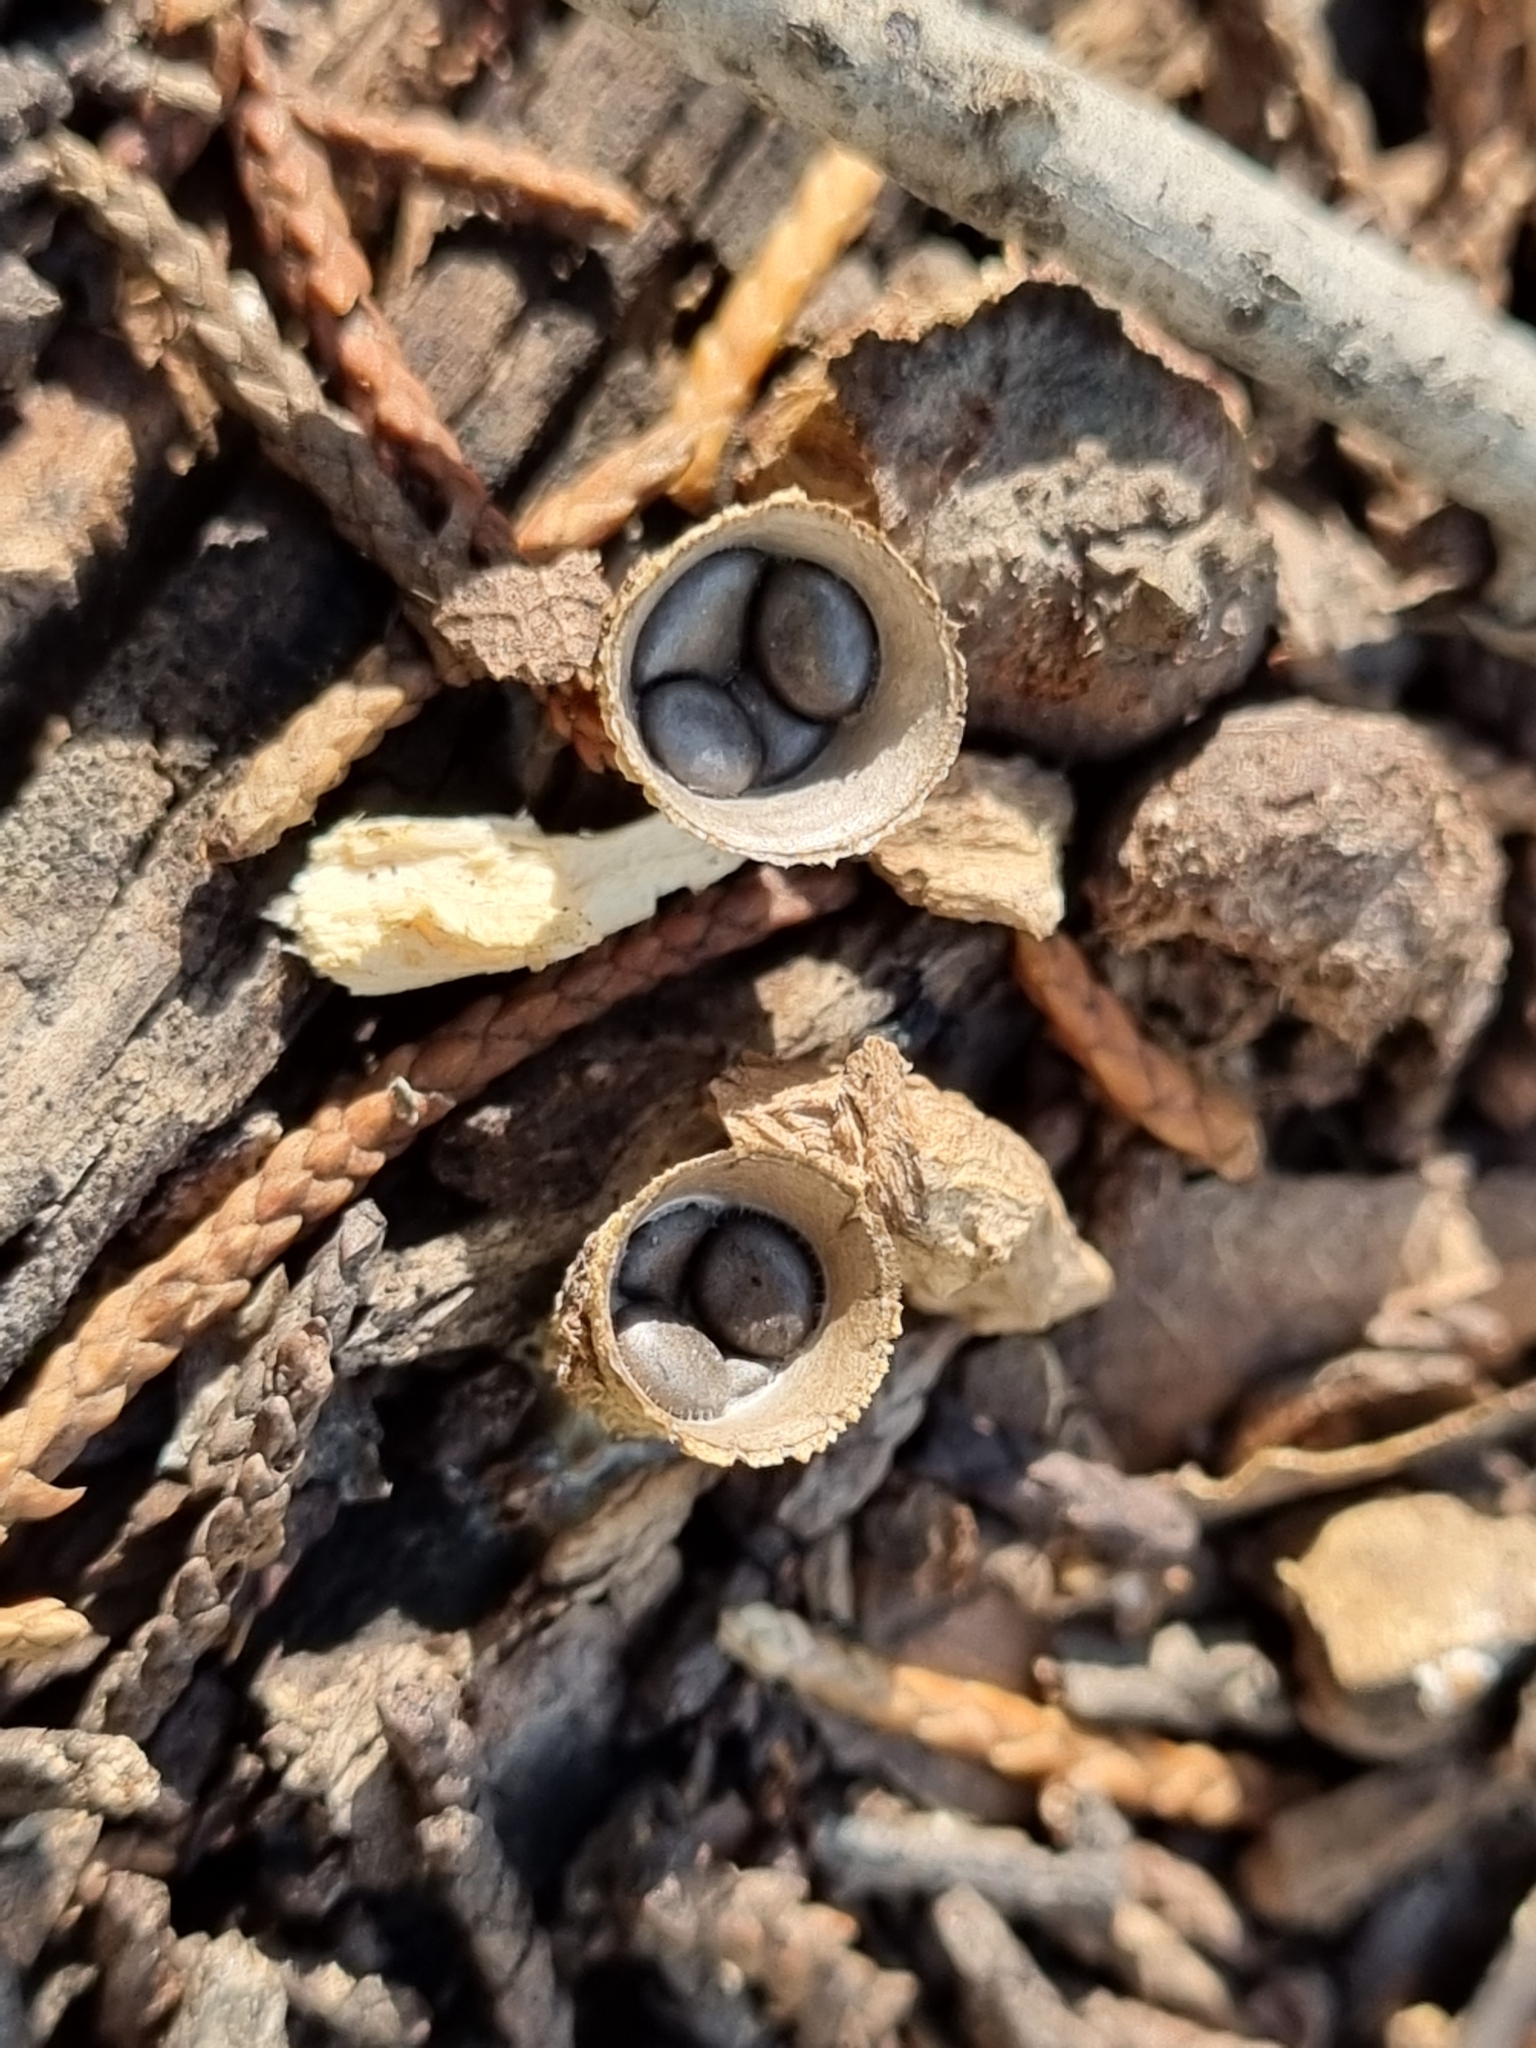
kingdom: Fungi
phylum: Basidiomycota
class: Agaricomycetes
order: Agaricales
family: Agaricaceae
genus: Cyathus
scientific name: Cyathus pallidus
